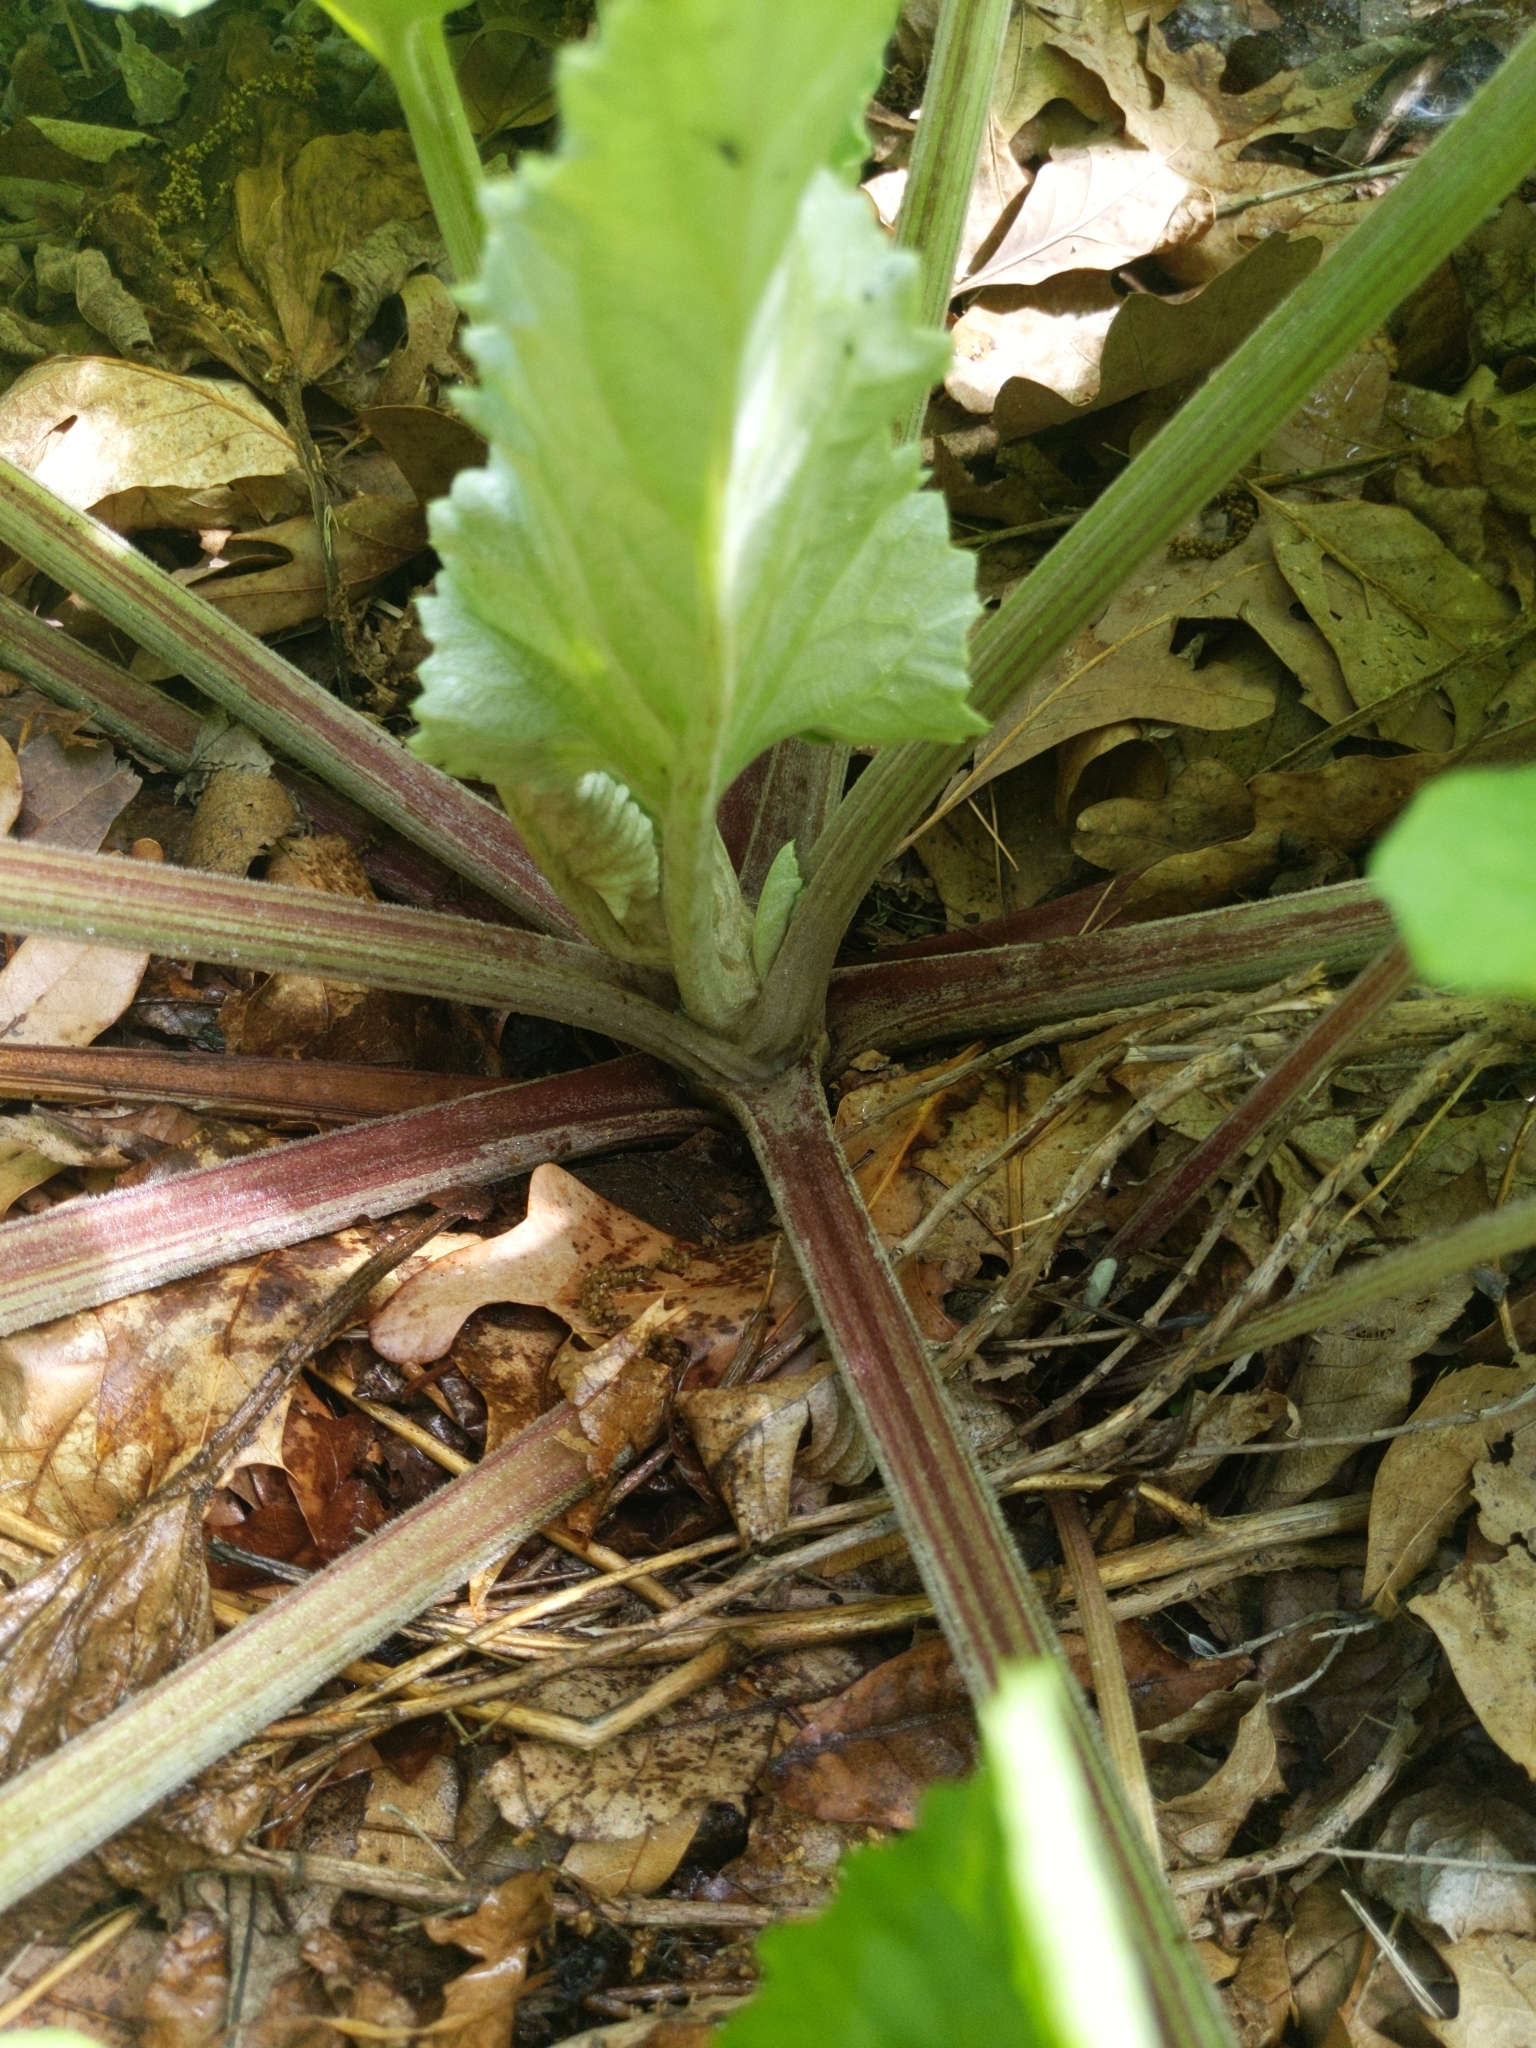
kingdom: Plantae
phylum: Tracheophyta
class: Magnoliopsida
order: Asterales
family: Asteraceae
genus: Arctium
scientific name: Arctium
